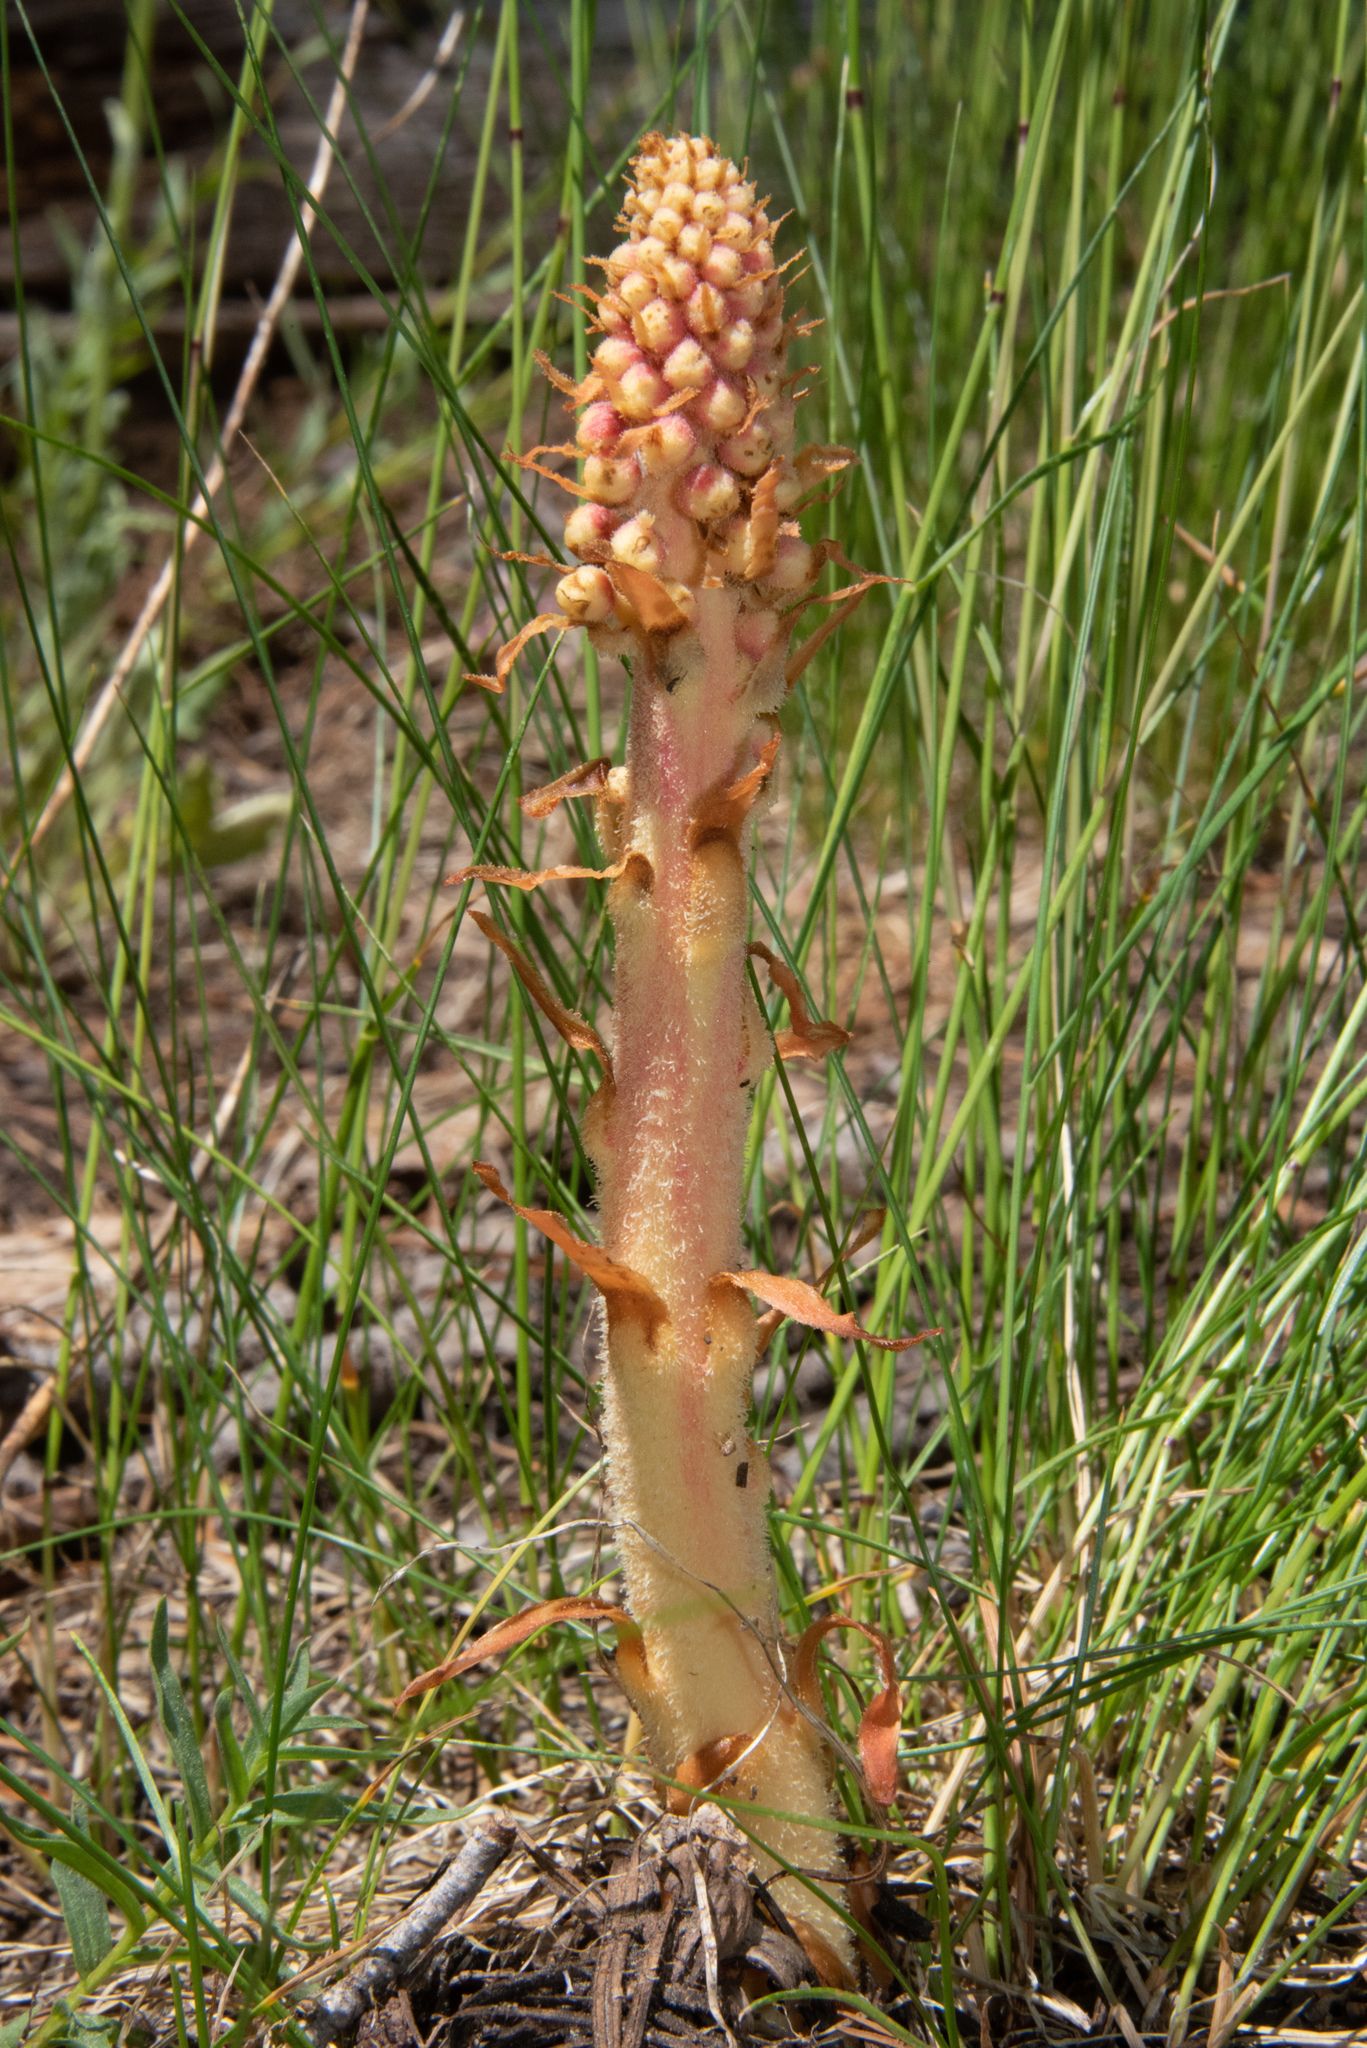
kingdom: Plantae
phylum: Tracheophyta
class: Magnoliopsida
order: Ericales
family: Ericaceae
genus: Pterospora
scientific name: Pterospora andromedea
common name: Giant bird's-nest
